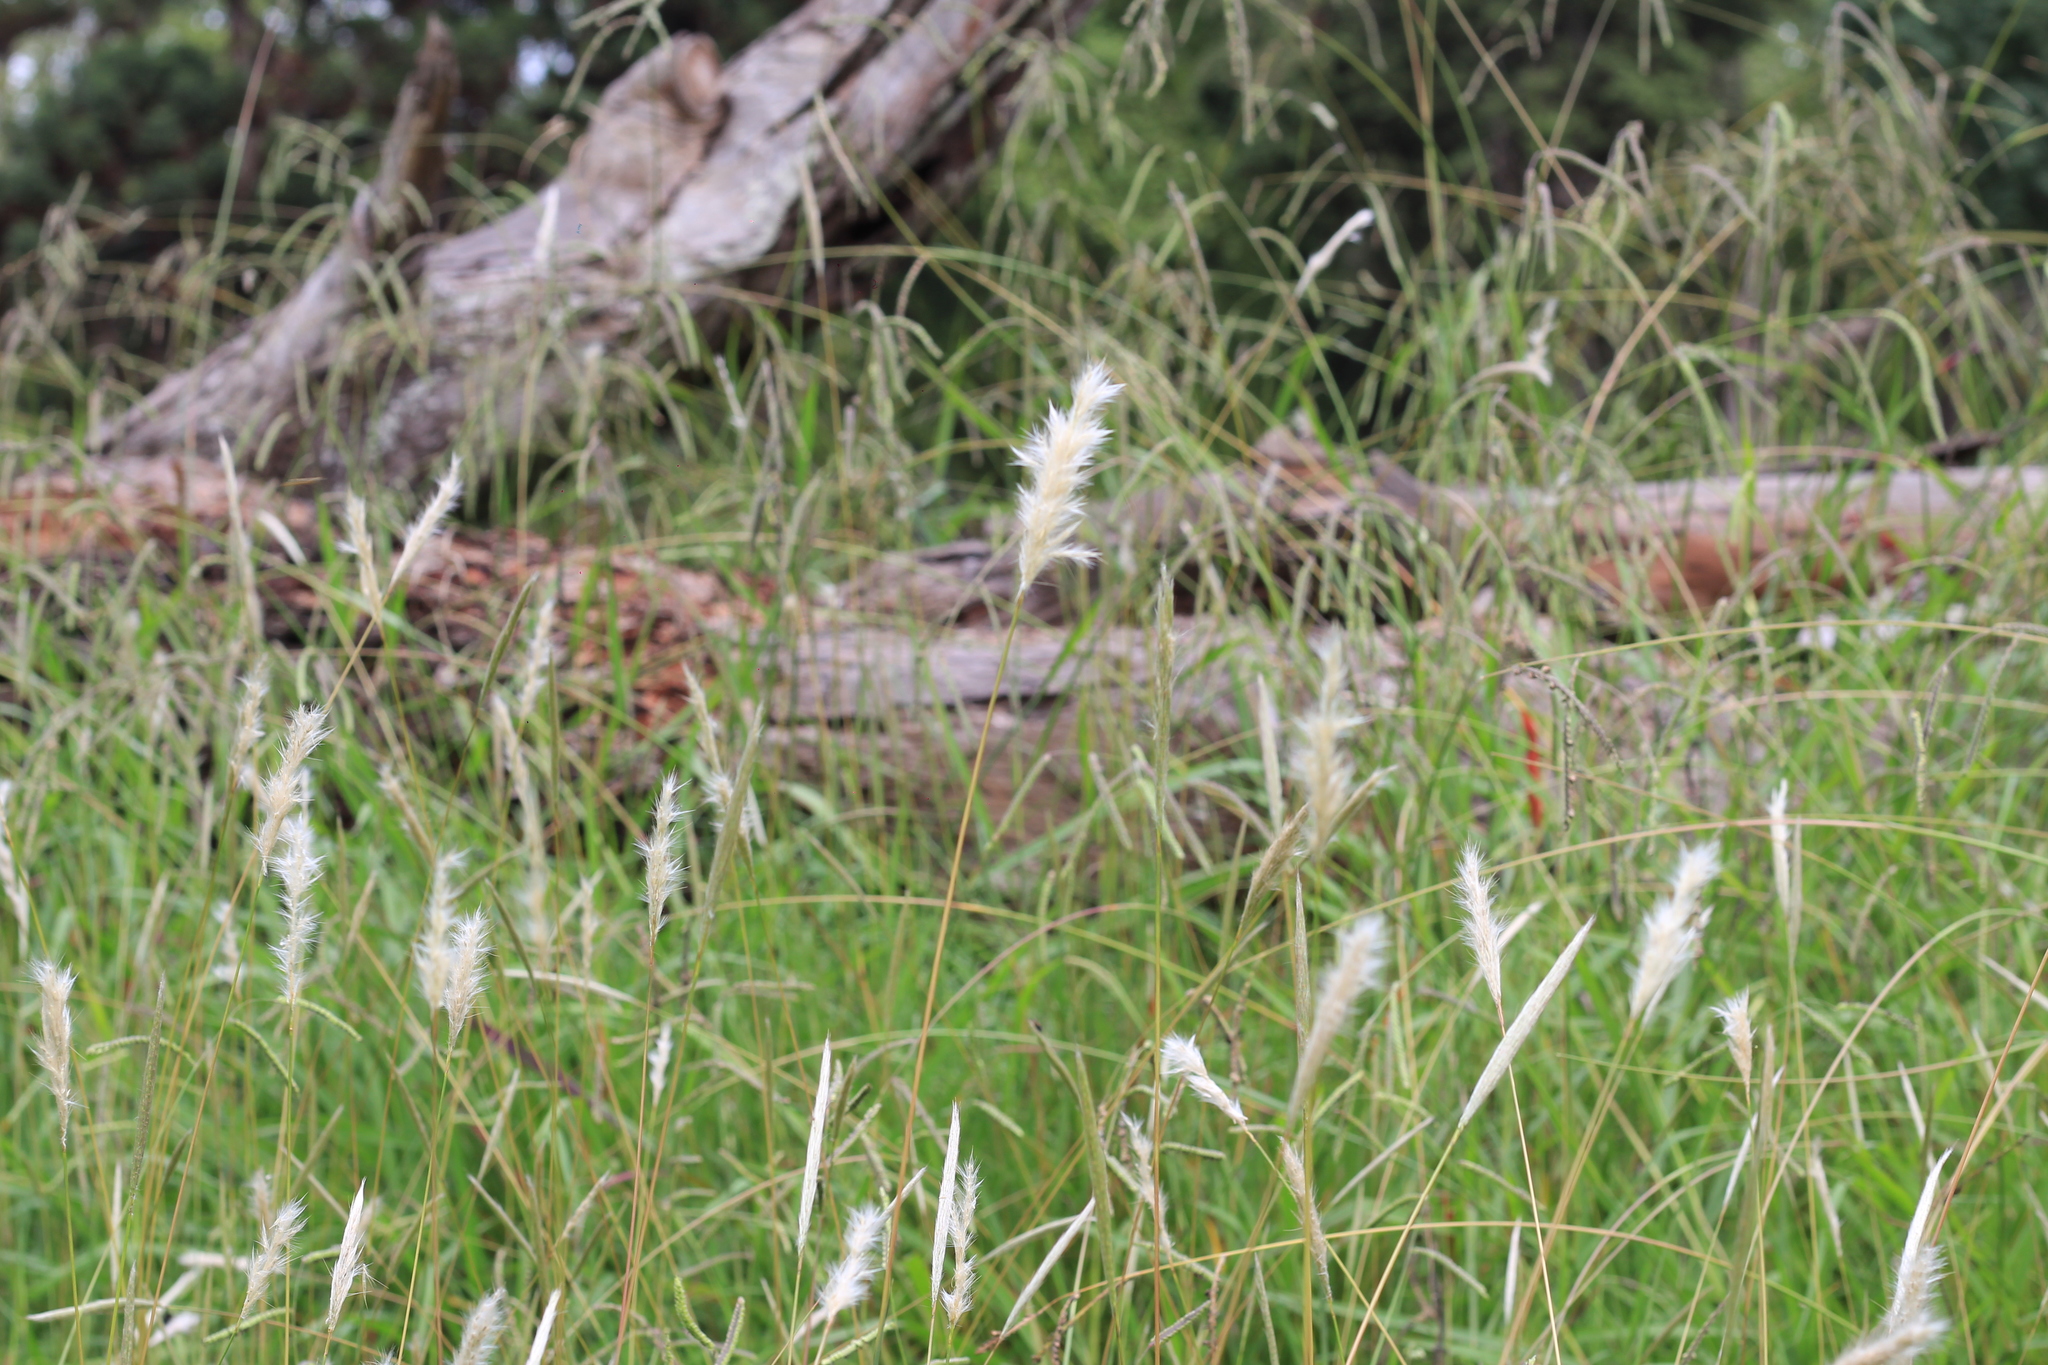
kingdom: Plantae
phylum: Tracheophyta
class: Liliopsida
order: Poales
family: Poaceae
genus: Bothriochloa
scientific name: Bothriochloa laguroides
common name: Silver bluestem
